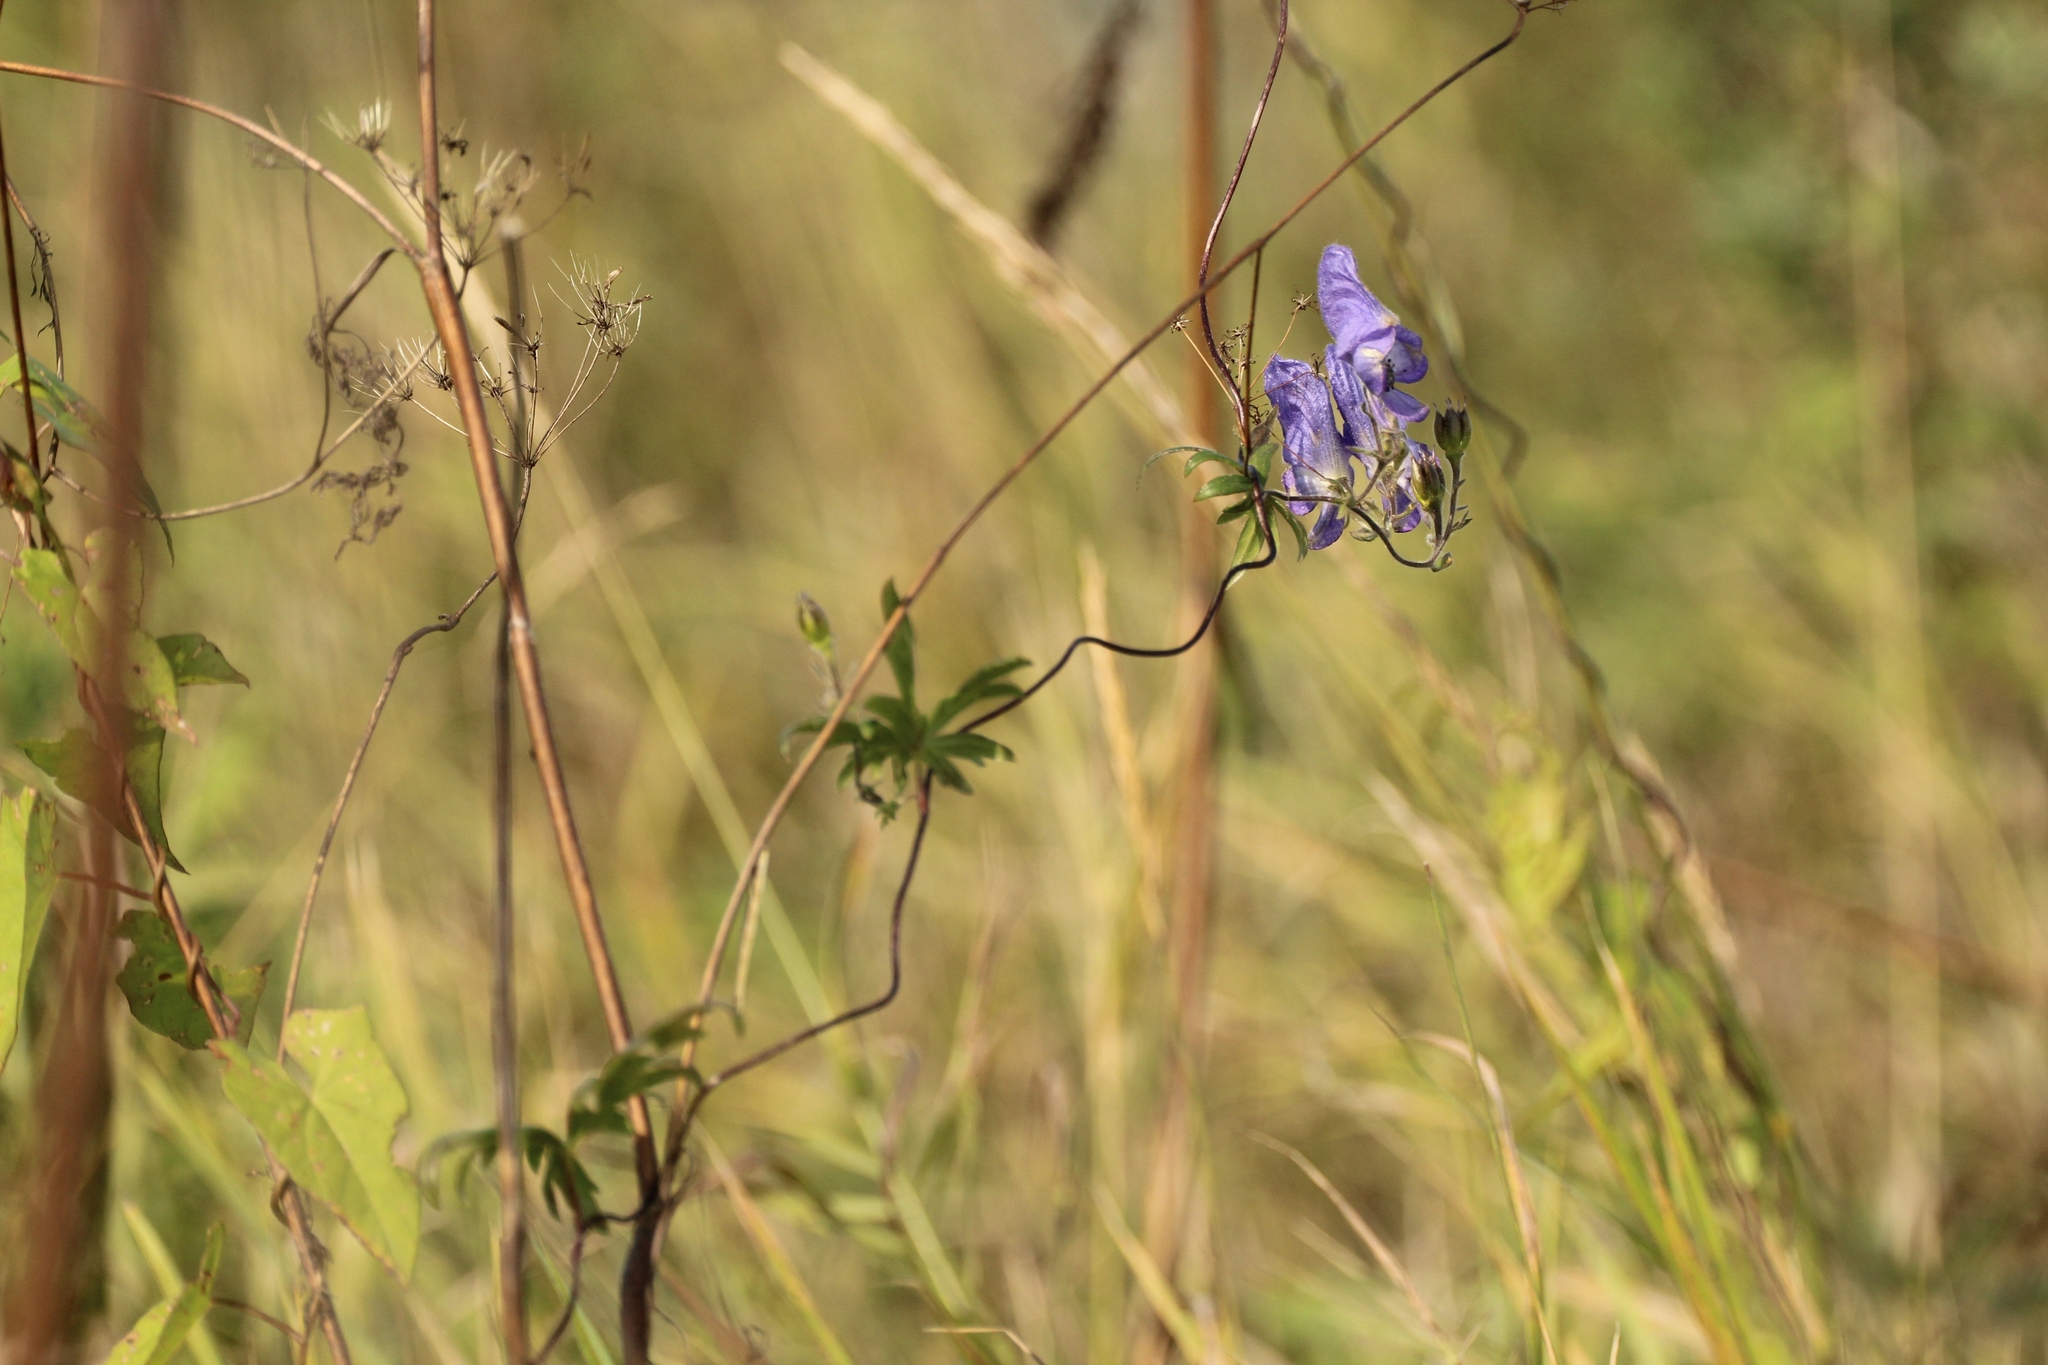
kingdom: Plantae
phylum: Tracheophyta
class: Magnoliopsida
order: Ranunculales
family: Ranunculaceae
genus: Aconitum
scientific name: Aconitum volubile
